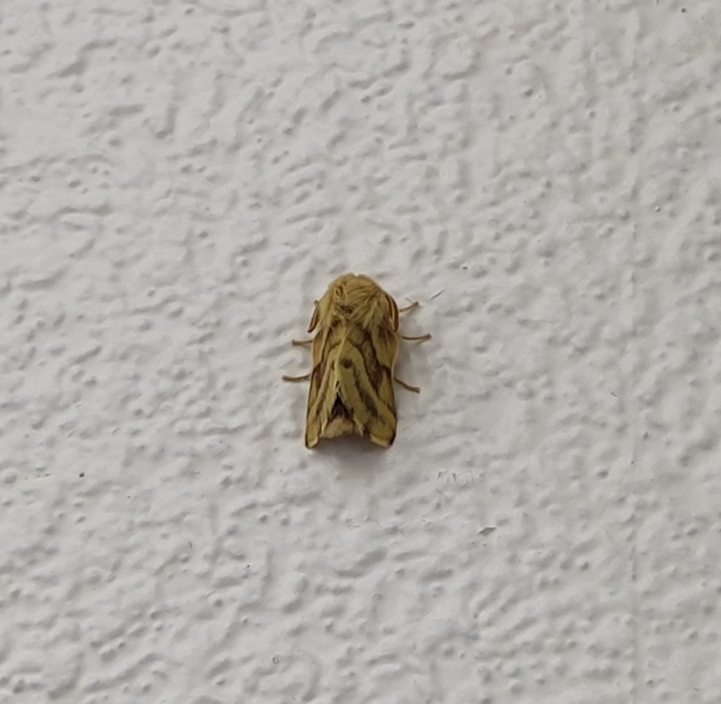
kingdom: Animalia
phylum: Arthropoda
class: Insecta
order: Lepidoptera
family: Lasiocampidae
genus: Malacosoma
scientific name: Malacosoma castrense
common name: Ground lackey
